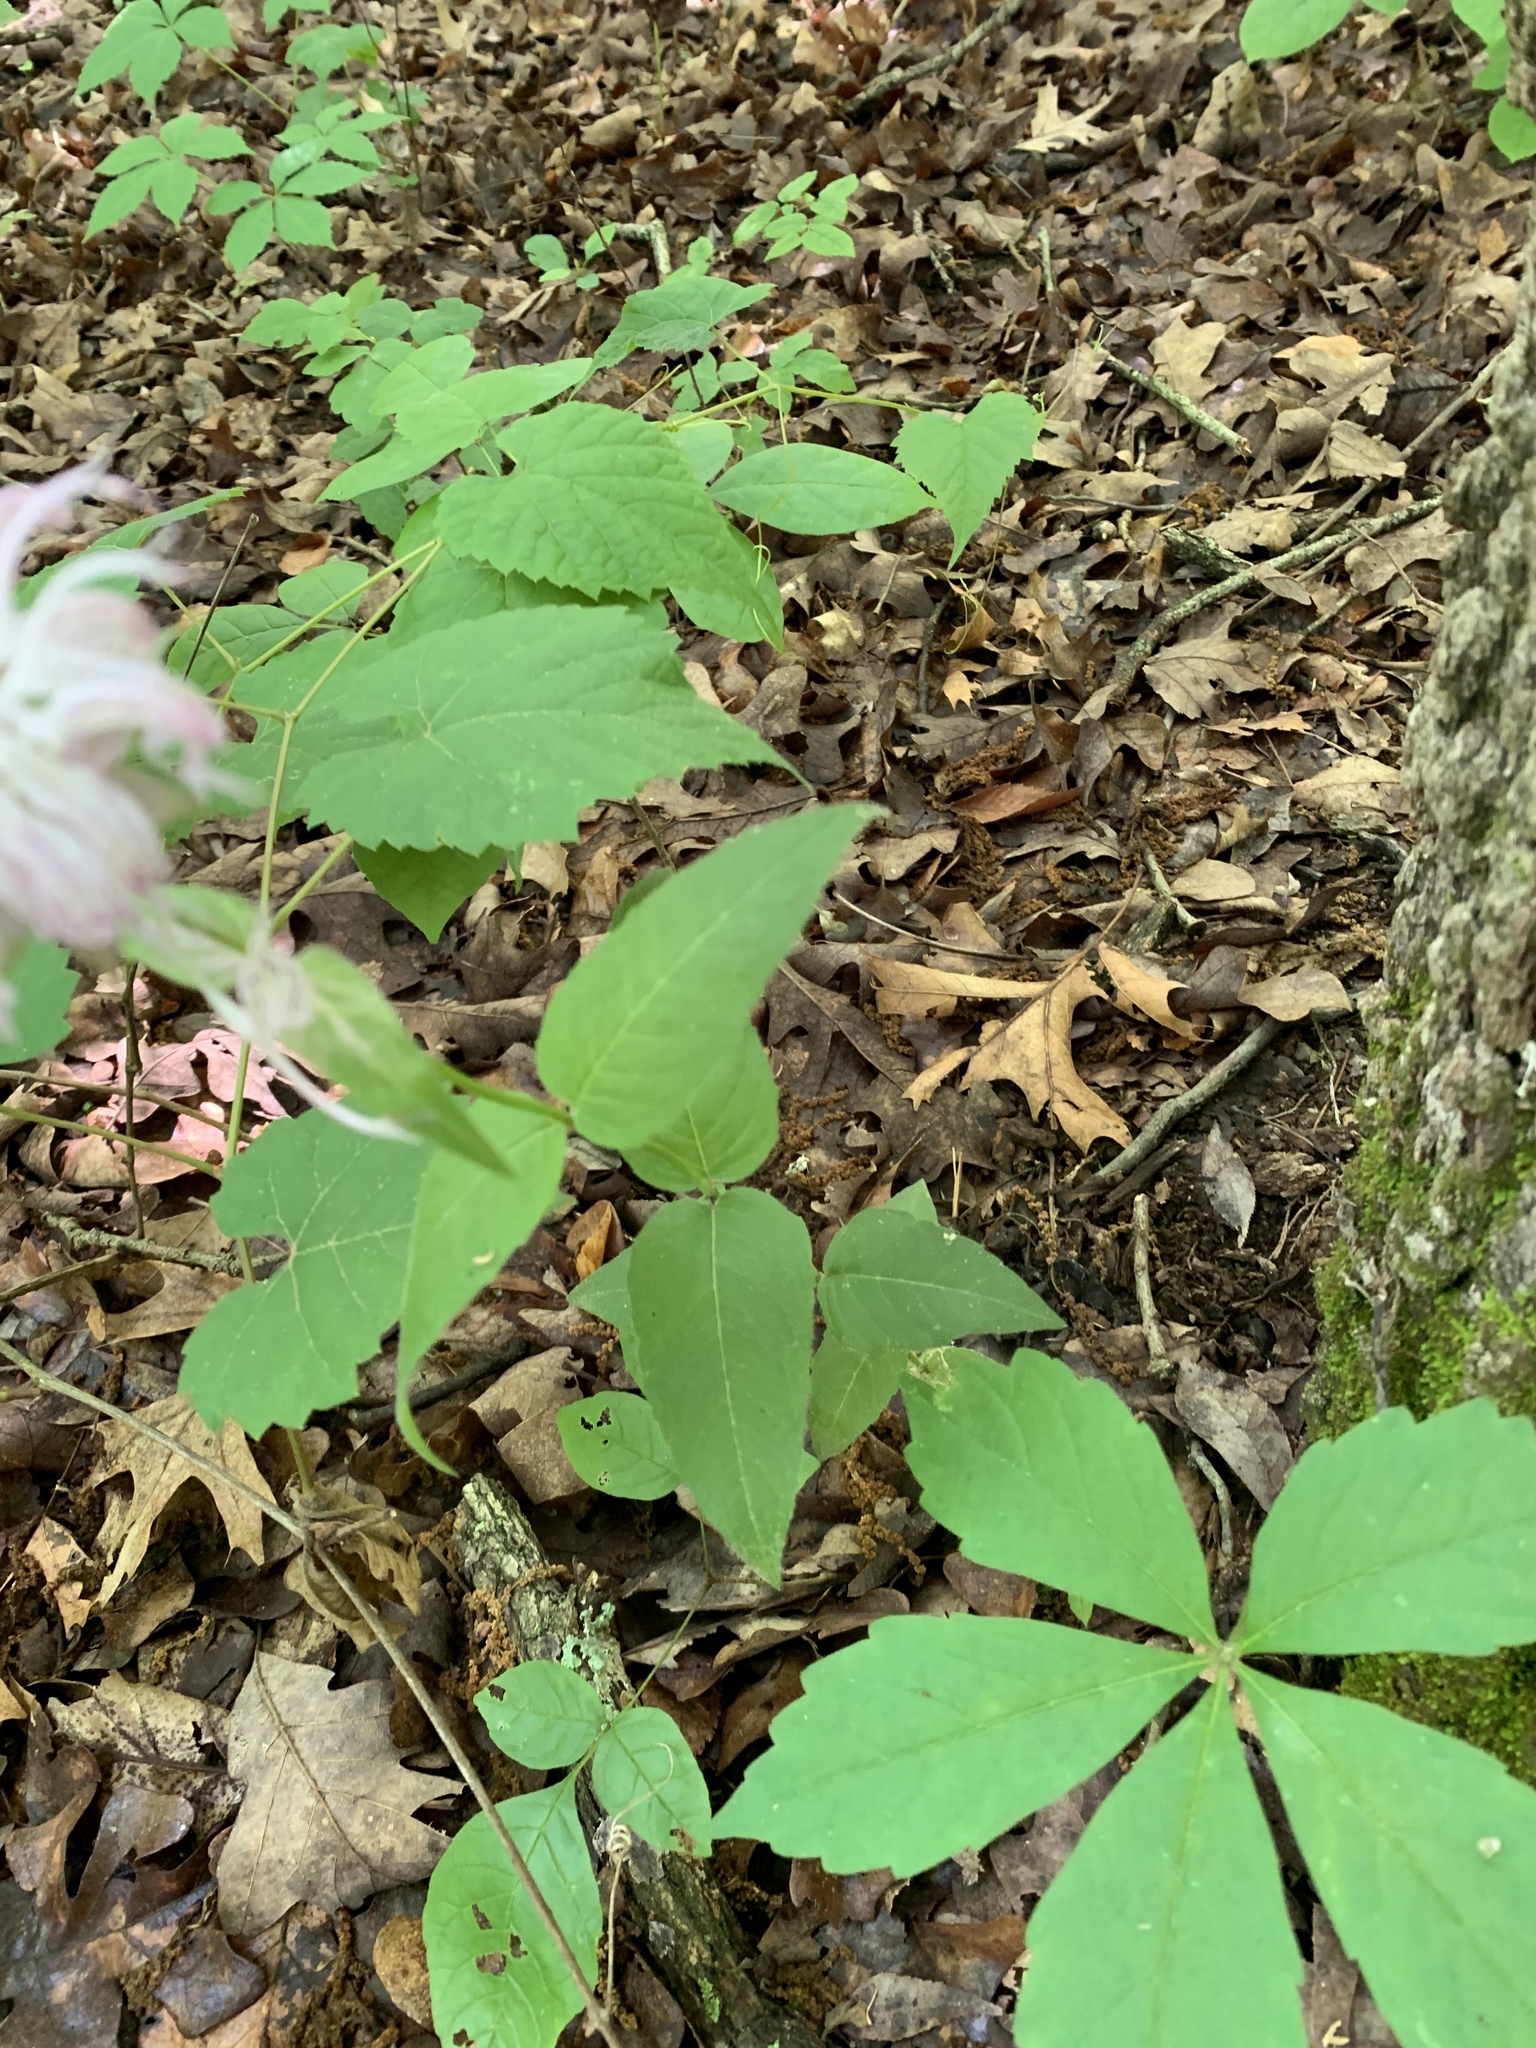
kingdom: Plantae
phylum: Tracheophyta
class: Magnoliopsida
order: Lamiales
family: Lamiaceae
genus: Monarda
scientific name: Monarda bradburiana
